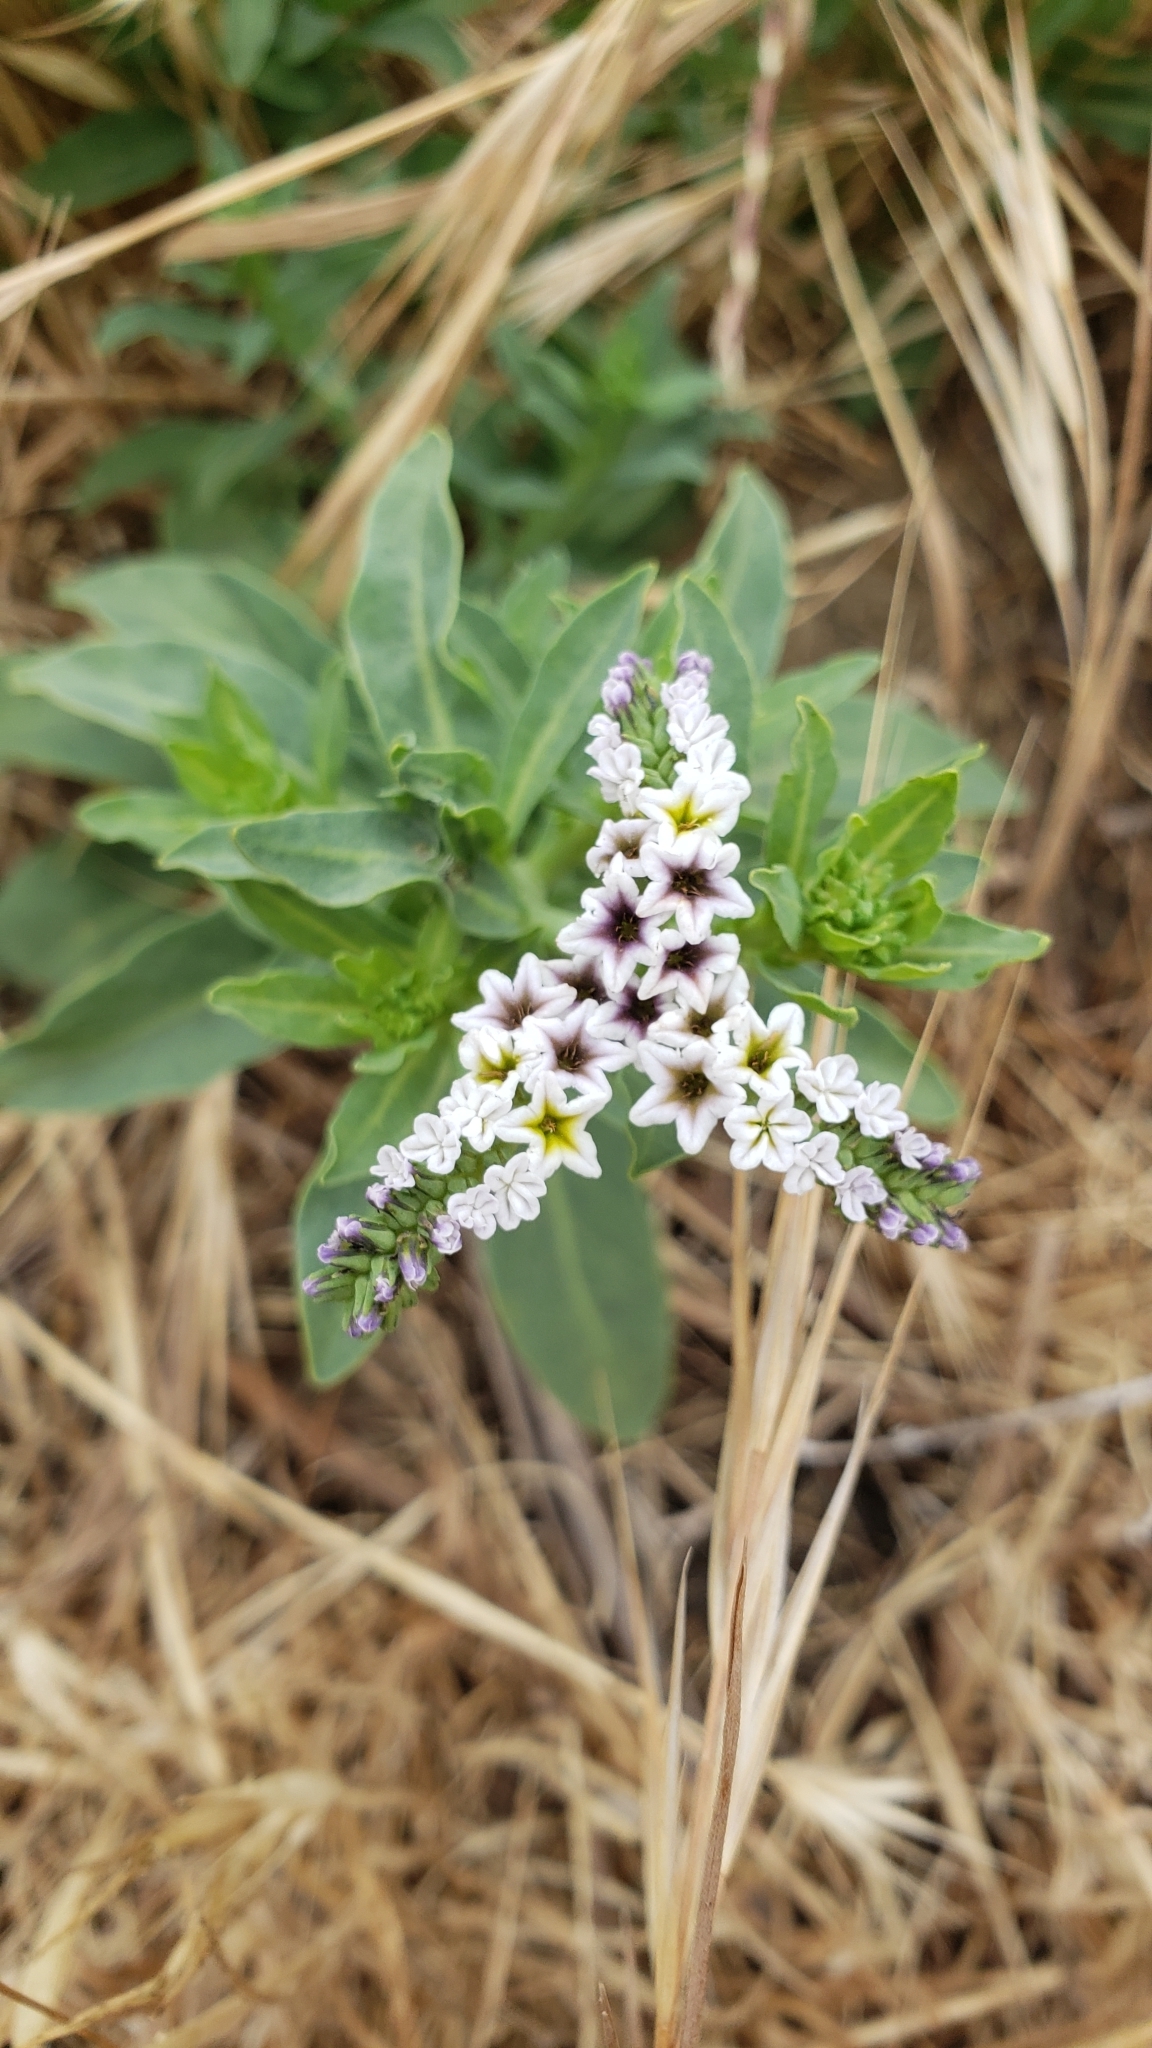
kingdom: Plantae
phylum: Tracheophyta
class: Magnoliopsida
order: Boraginales
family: Heliotropiaceae
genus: Heliotropium
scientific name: Heliotropium curassavicum
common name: Seaside heliotrope
